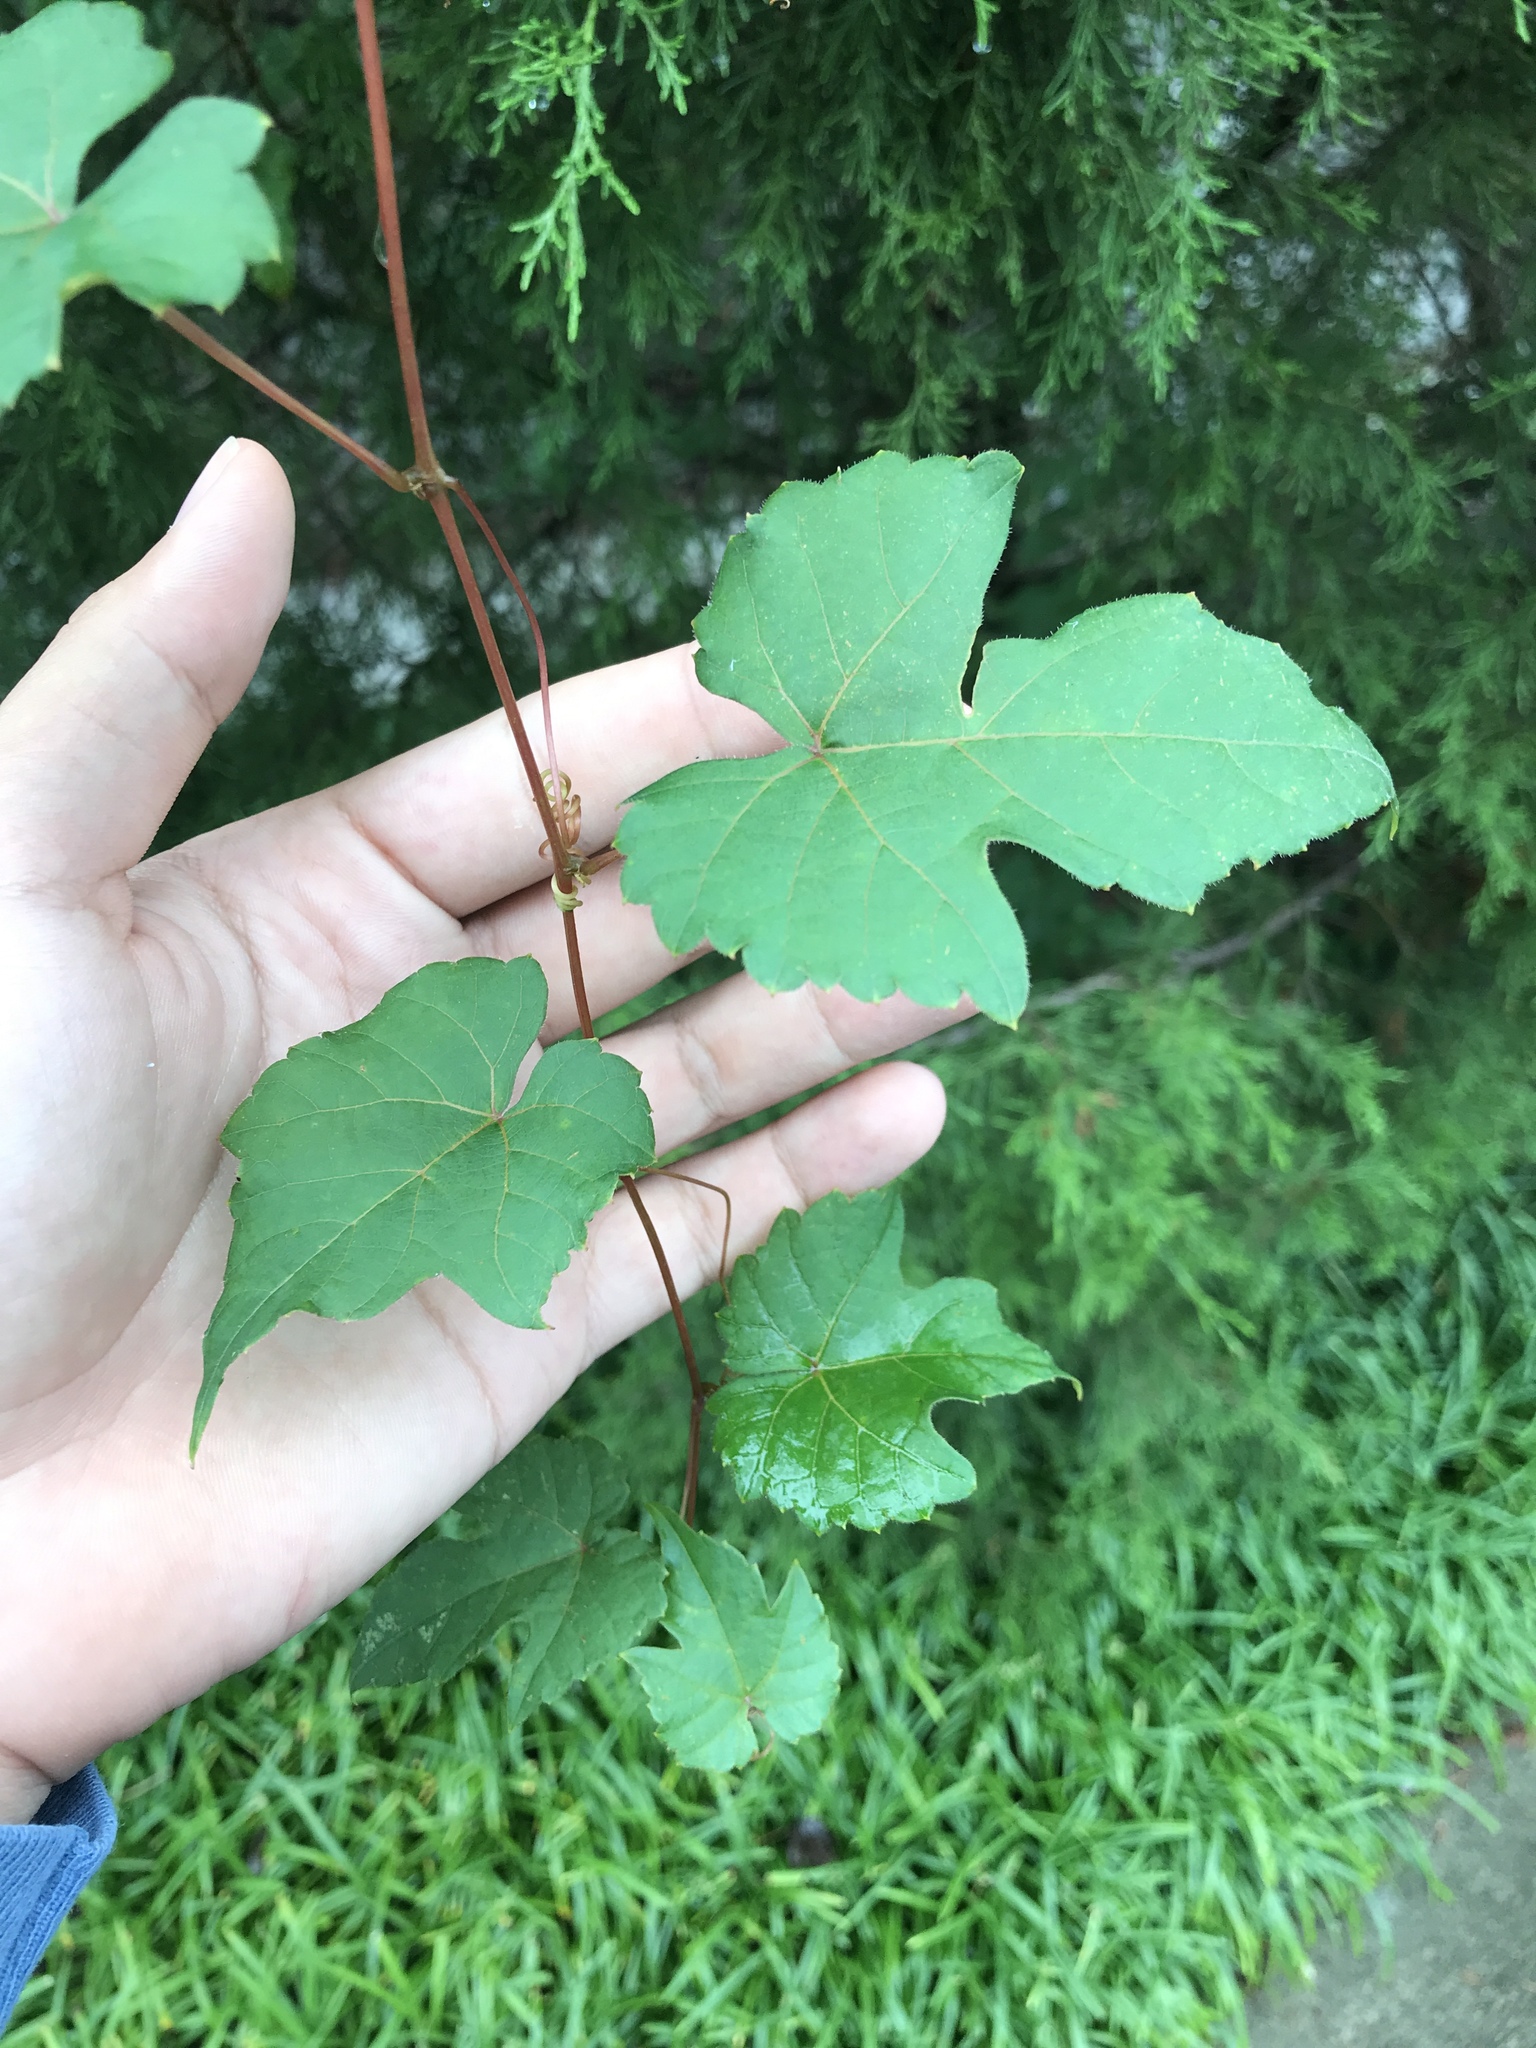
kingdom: Plantae
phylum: Tracheophyta
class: Magnoliopsida
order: Vitales
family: Vitaceae
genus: Ampelopsis
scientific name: Ampelopsis glandulosa
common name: Amur peppervine
